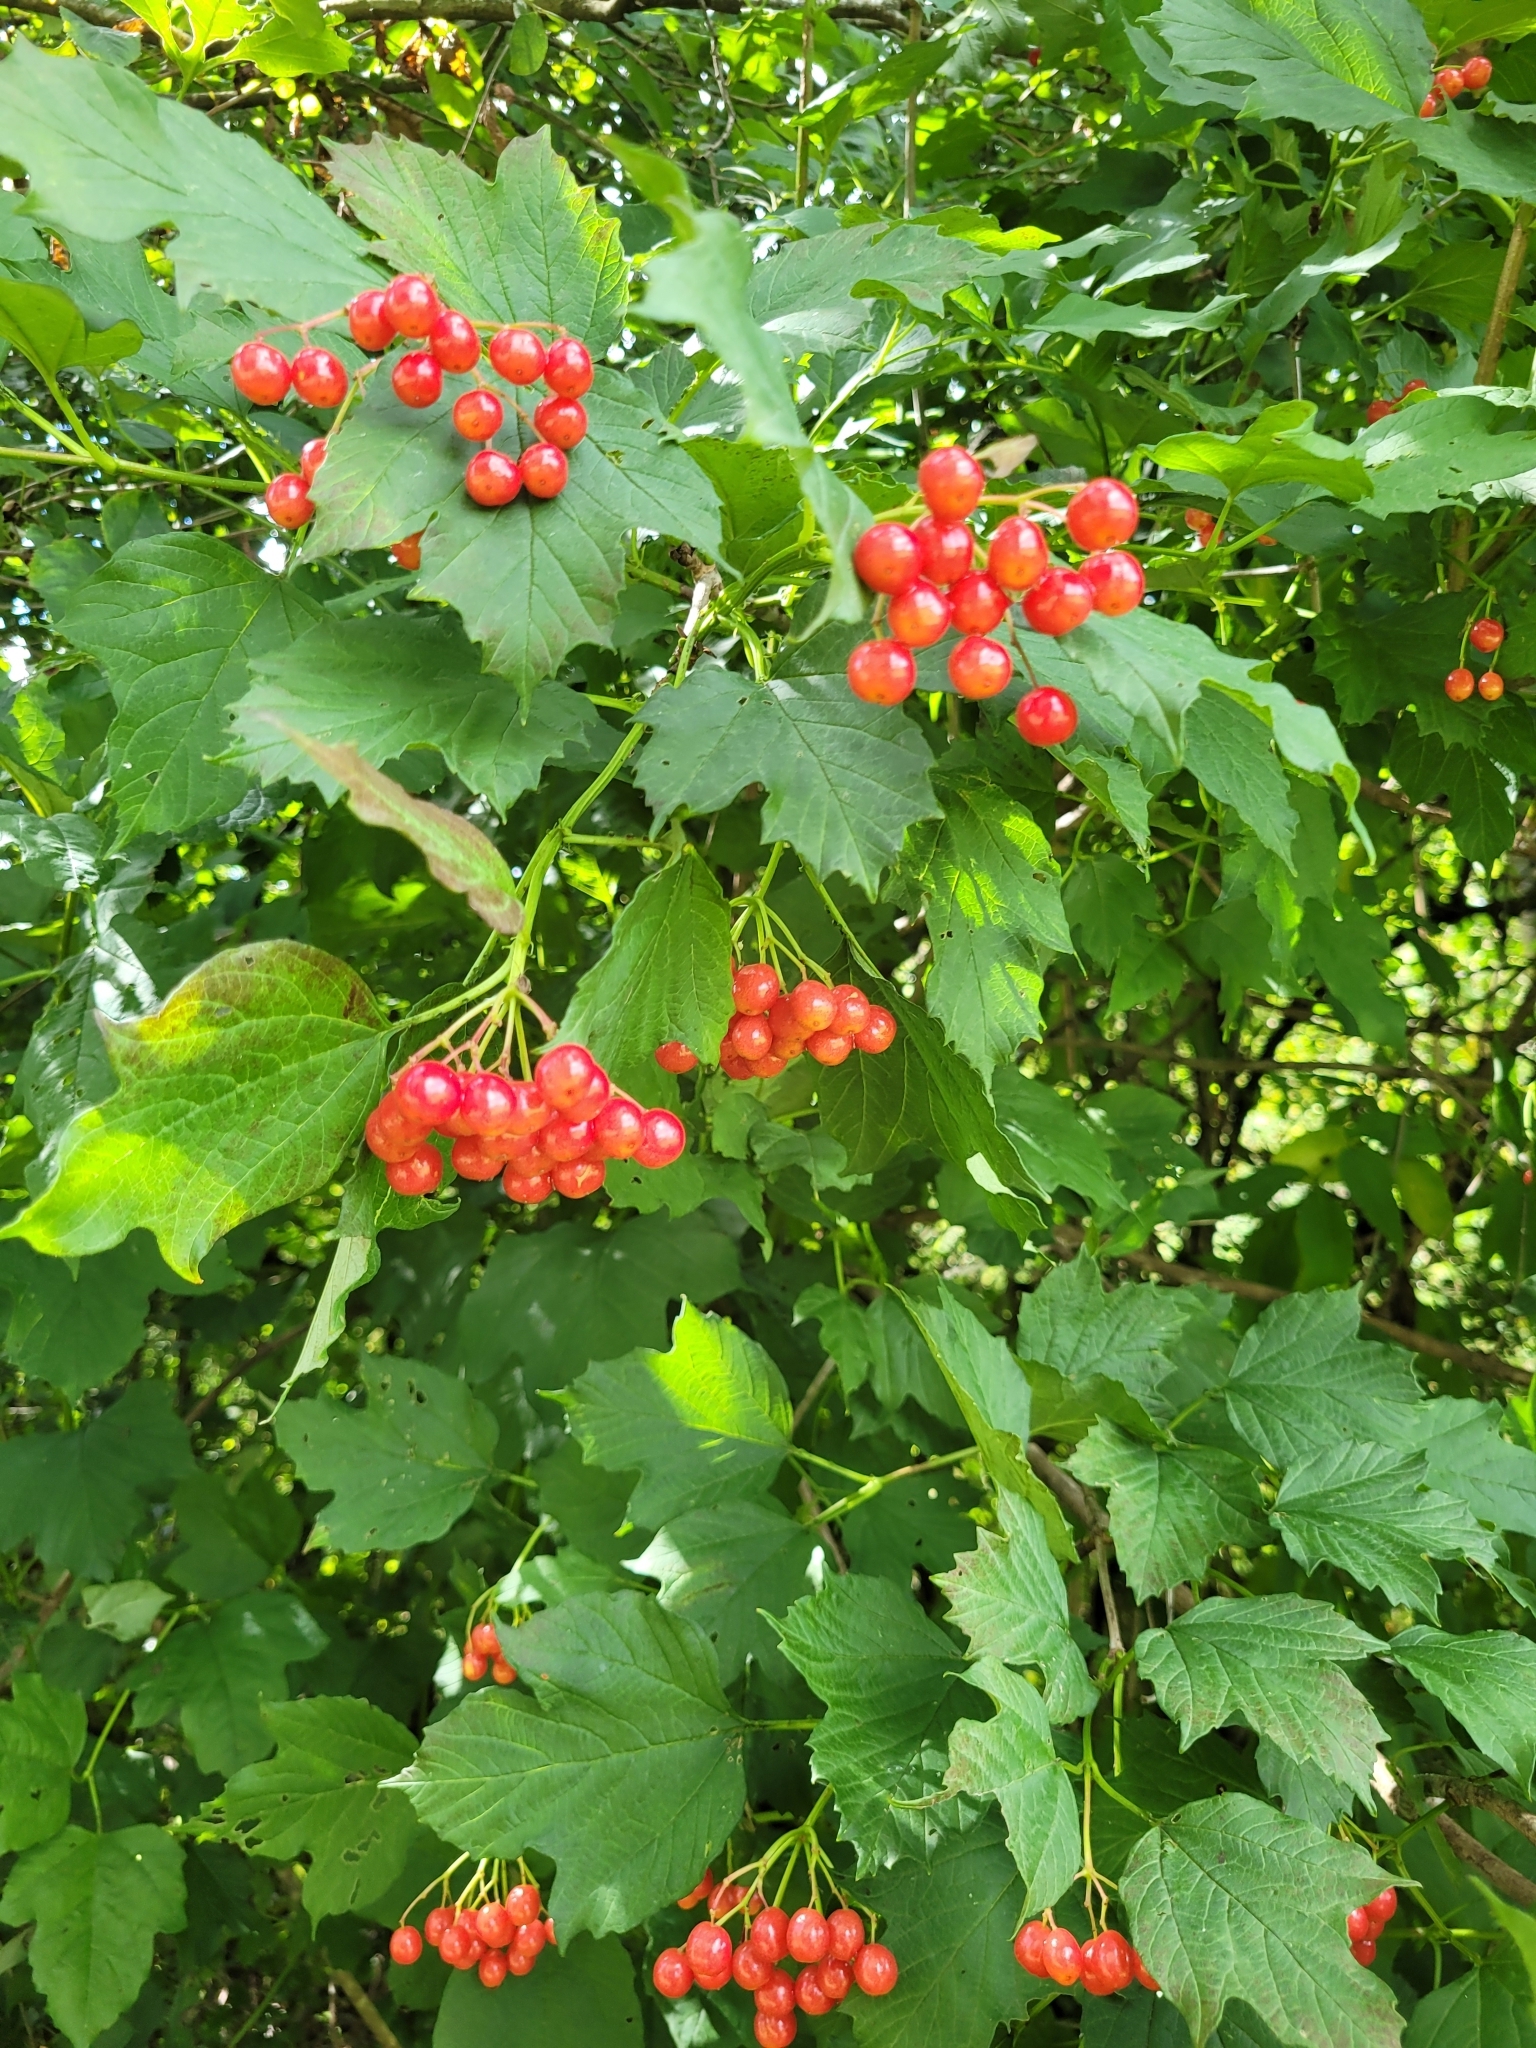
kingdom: Plantae
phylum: Tracheophyta
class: Magnoliopsida
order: Dipsacales
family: Viburnaceae
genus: Viburnum
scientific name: Viburnum opulus
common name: Guelder-rose
